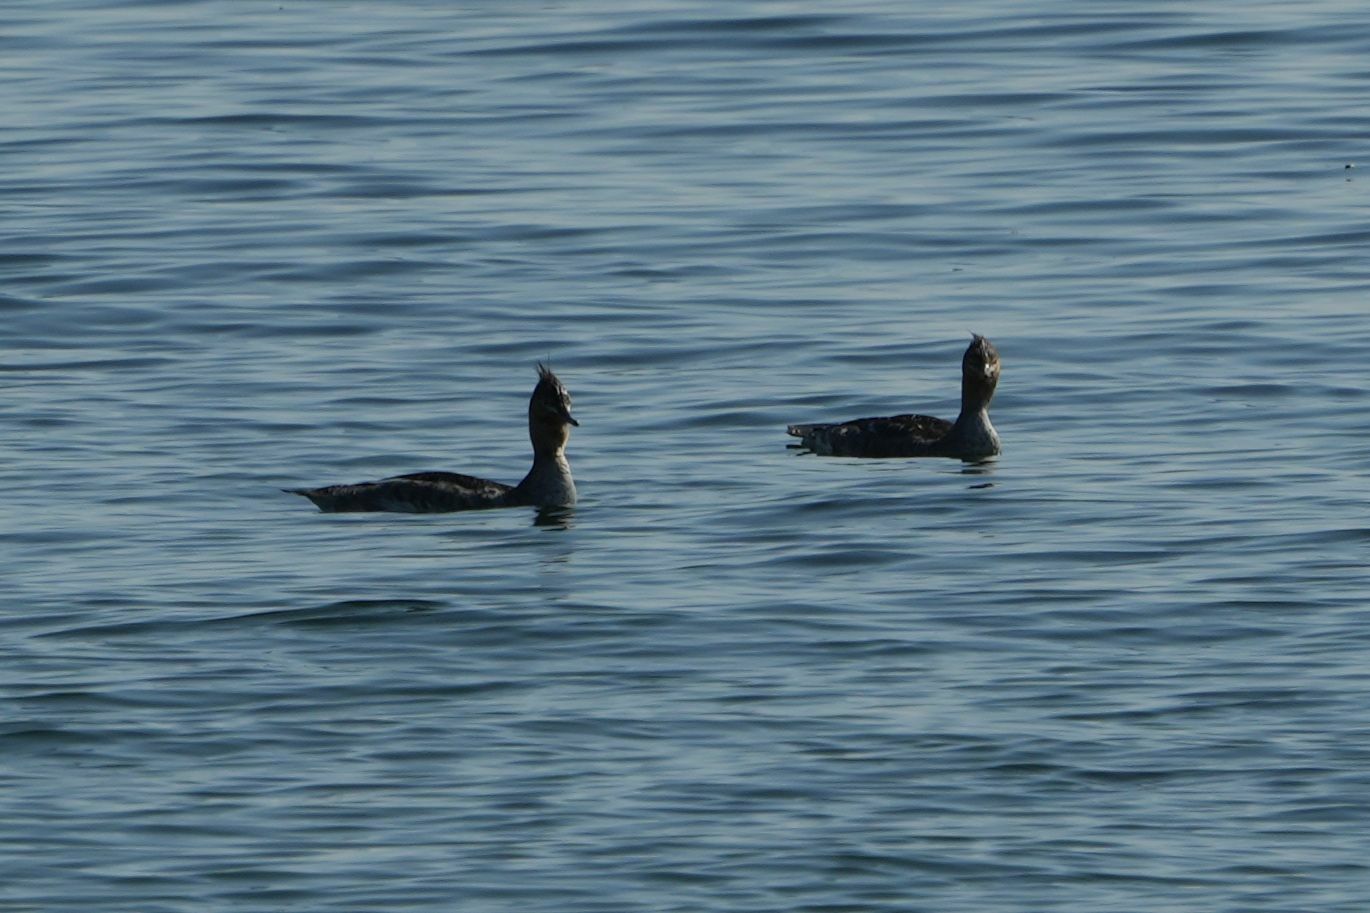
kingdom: Animalia
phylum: Chordata
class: Aves
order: Anseriformes
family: Anatidae
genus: Mergus
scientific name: Mergus serrator
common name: Red-breasted merganser
